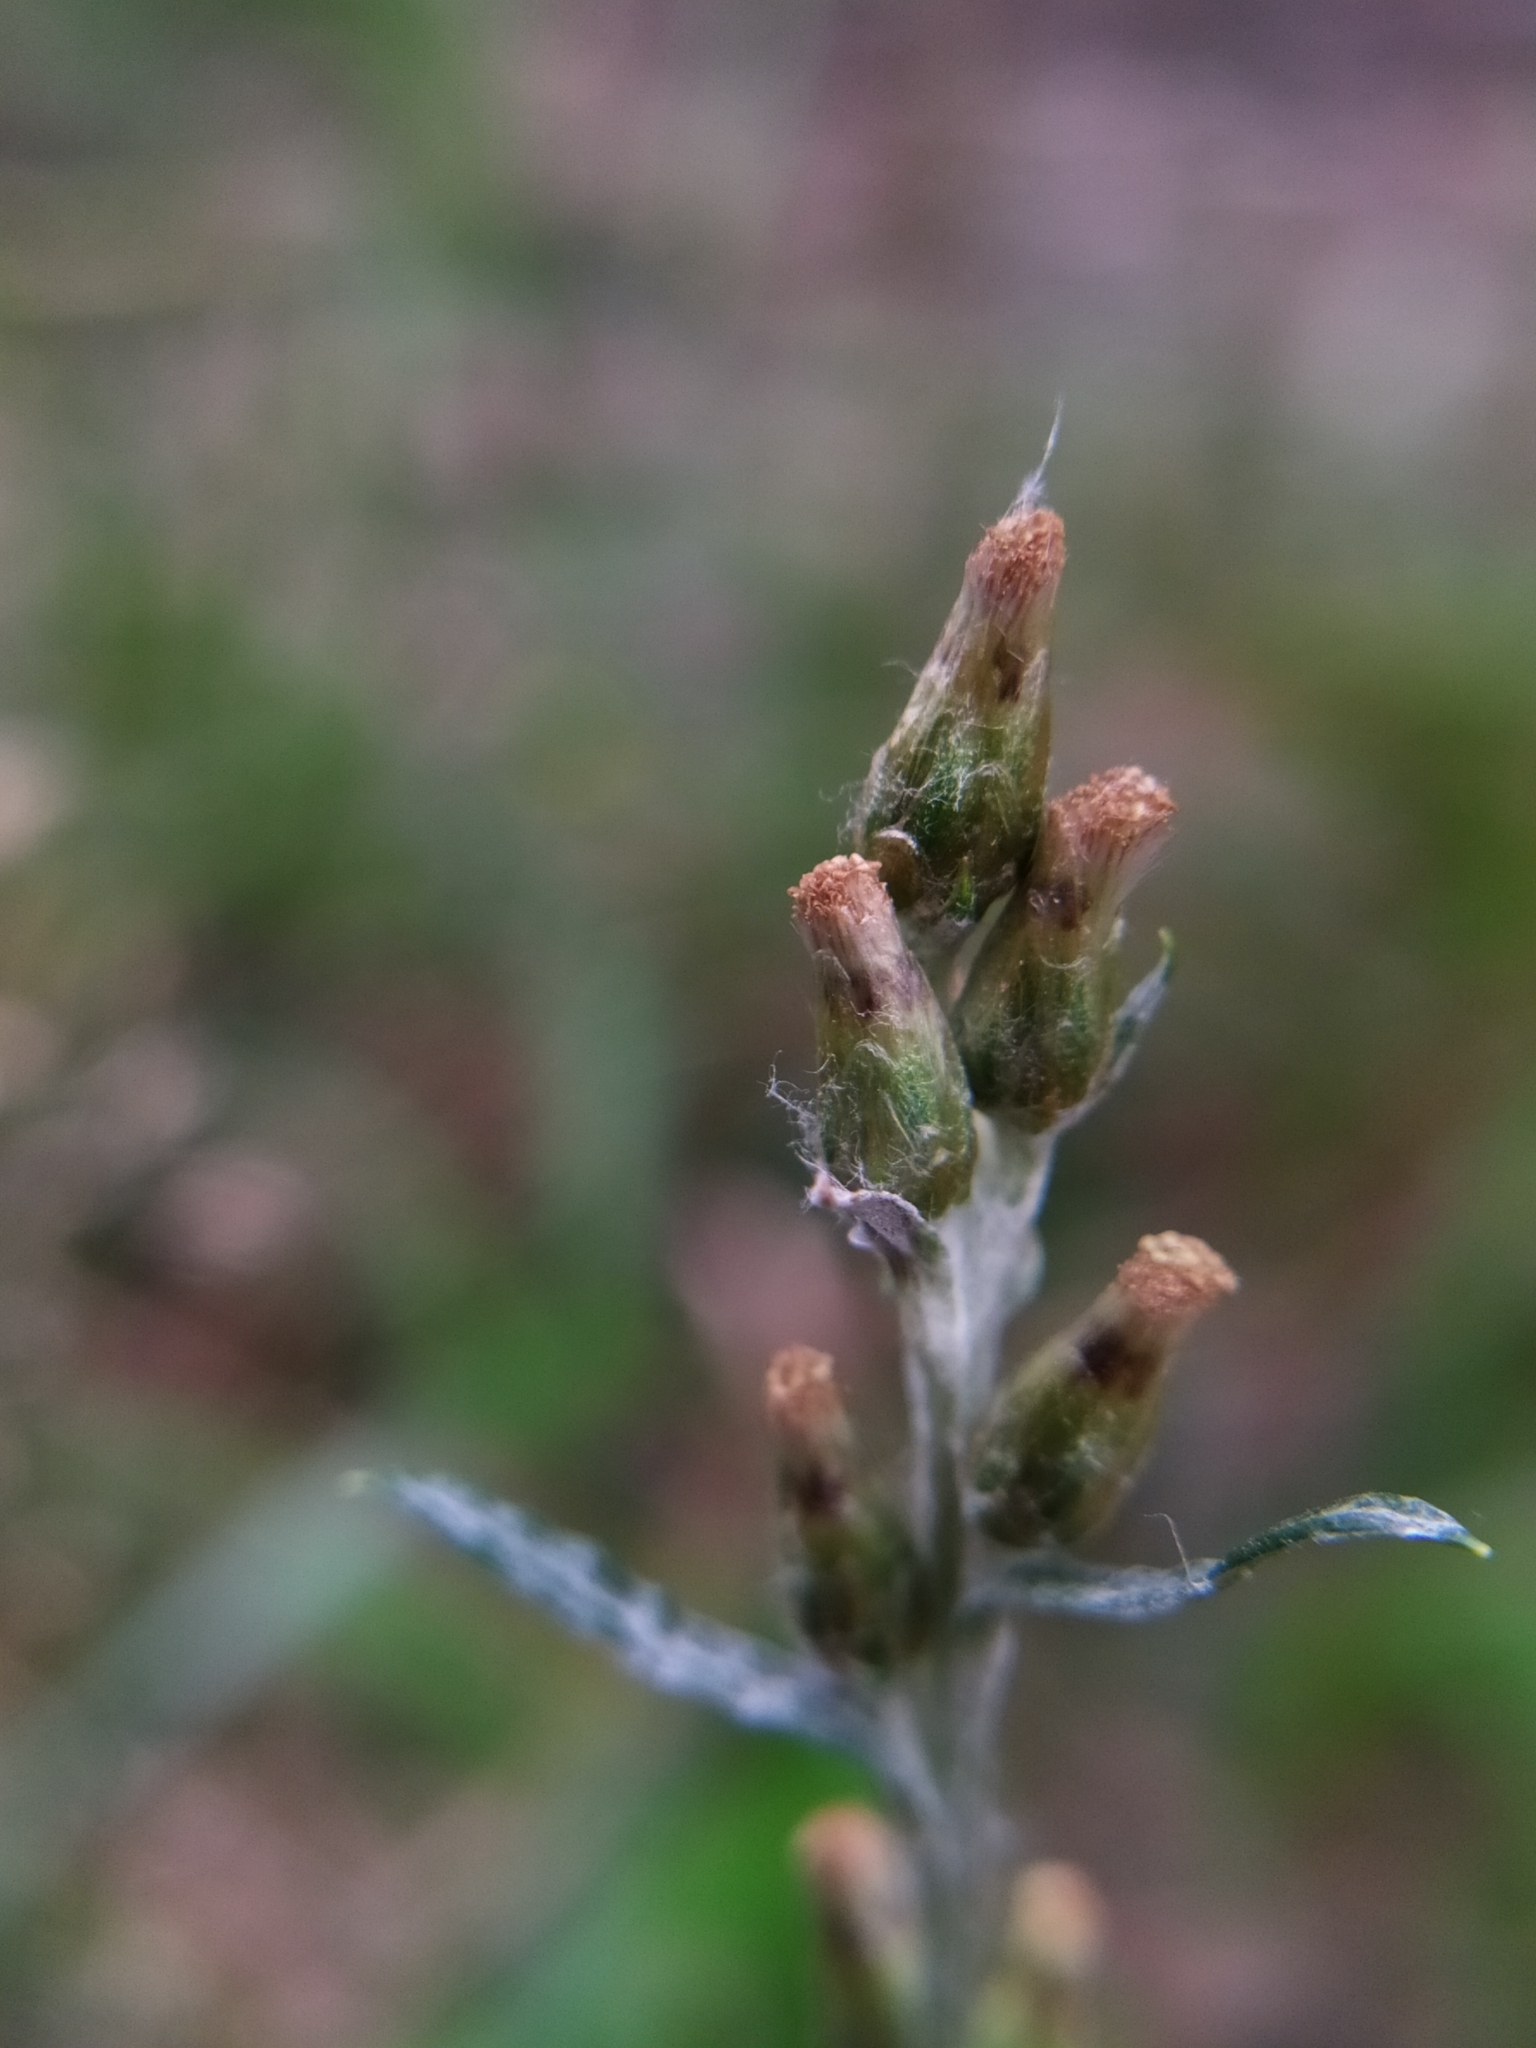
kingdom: Plantae
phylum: Tracheophyta
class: Magnoliopsida
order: Asterales
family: Asteraceae
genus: Omalotheca
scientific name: Omalotheca sylvatica
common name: Heath cudweed
